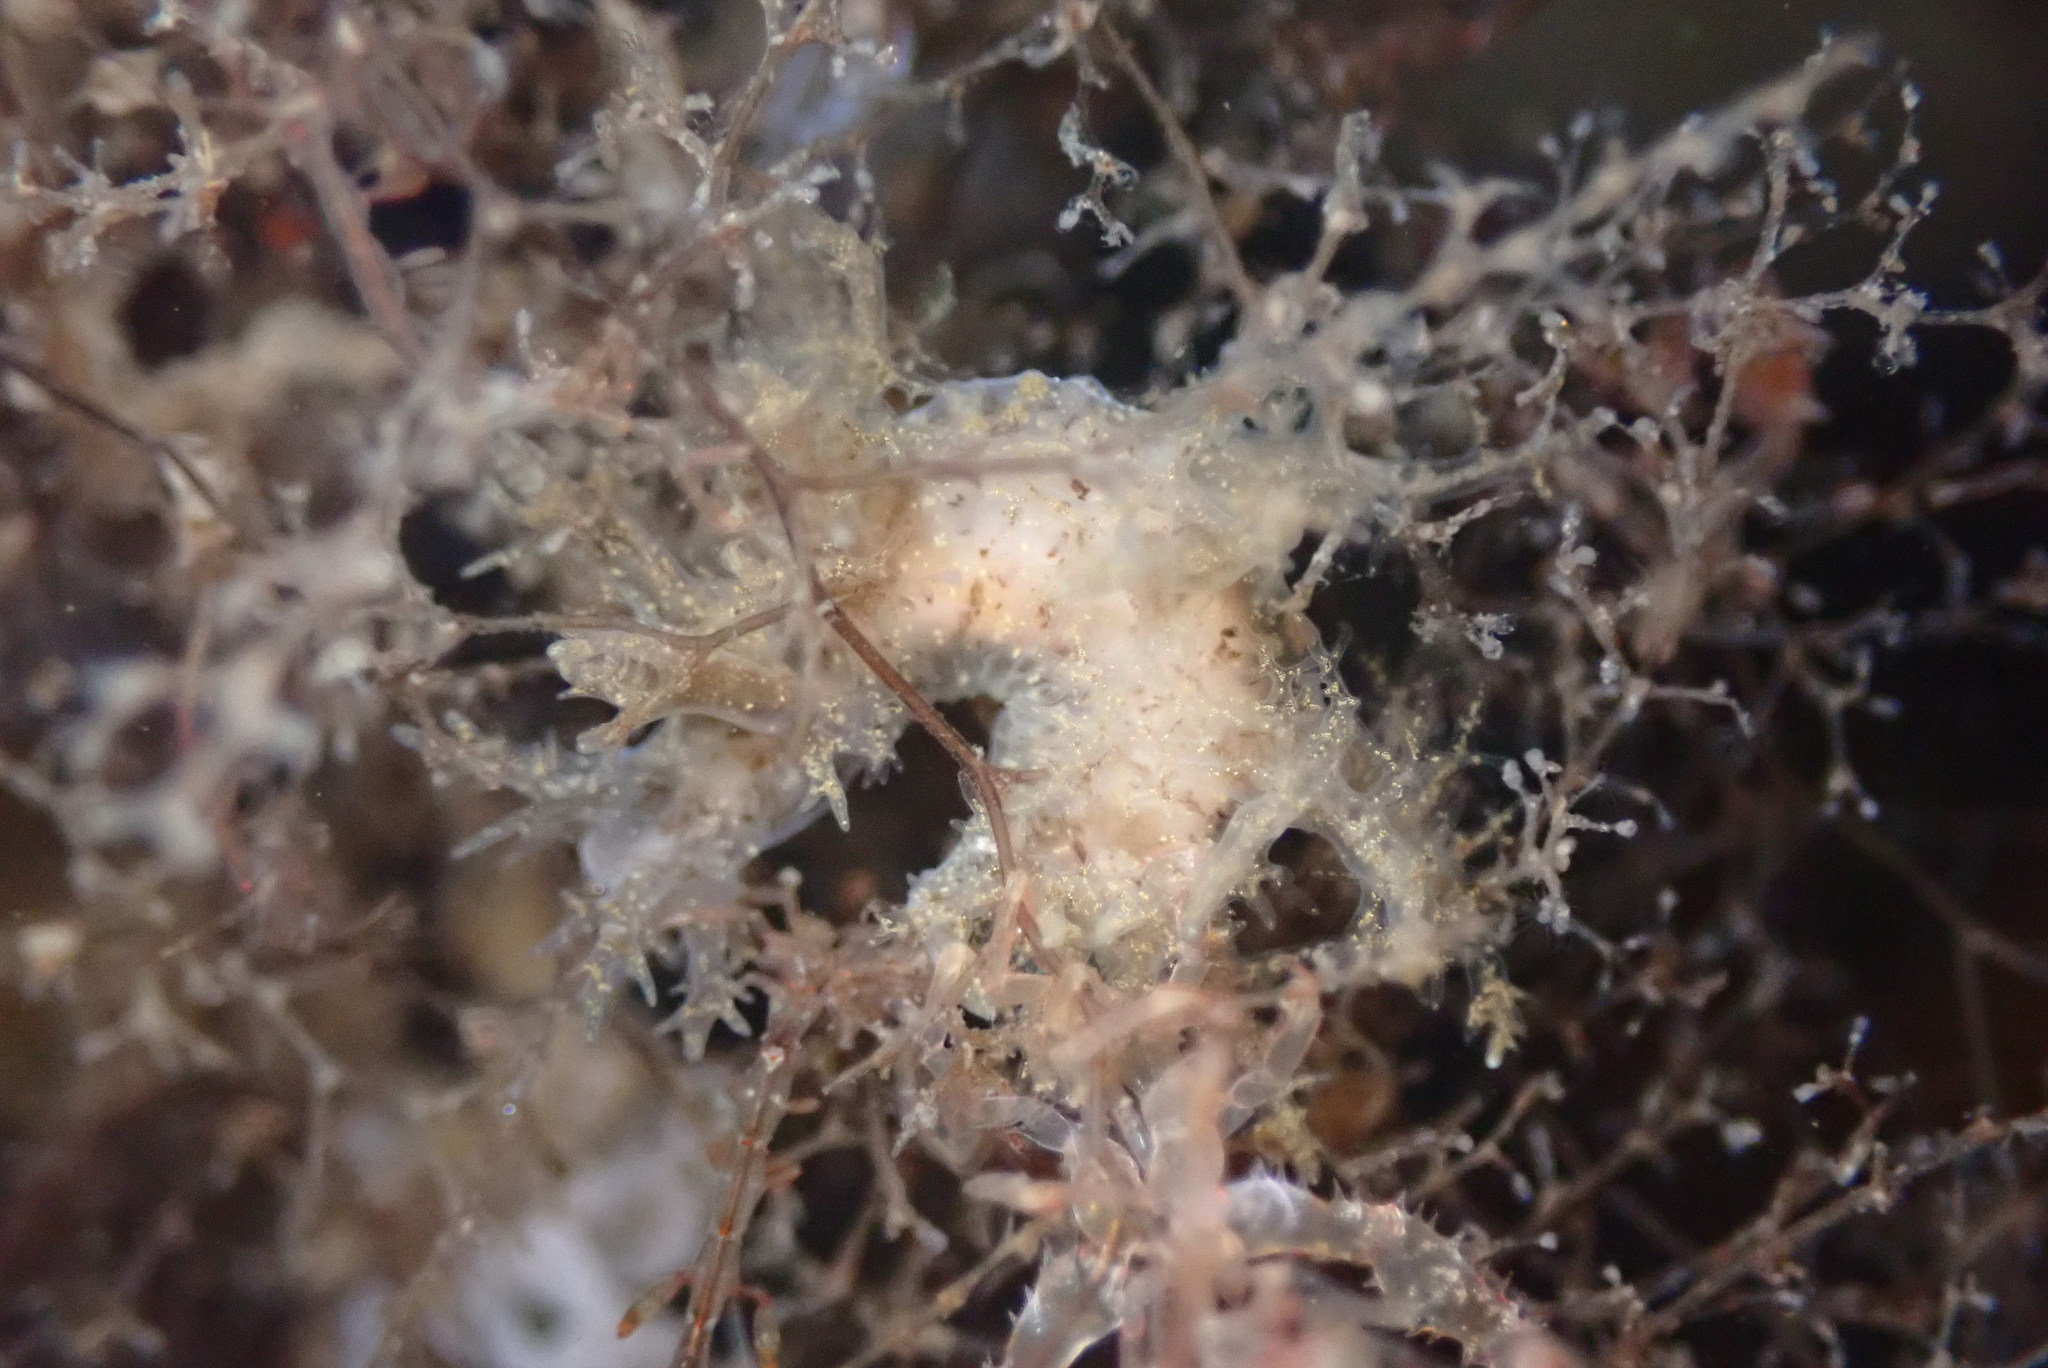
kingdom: Animalia
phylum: Mollusca
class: Gastropoda
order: Nudibranchia
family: Dendronotidae
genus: Dendronotus
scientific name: Dendronotus venustus
